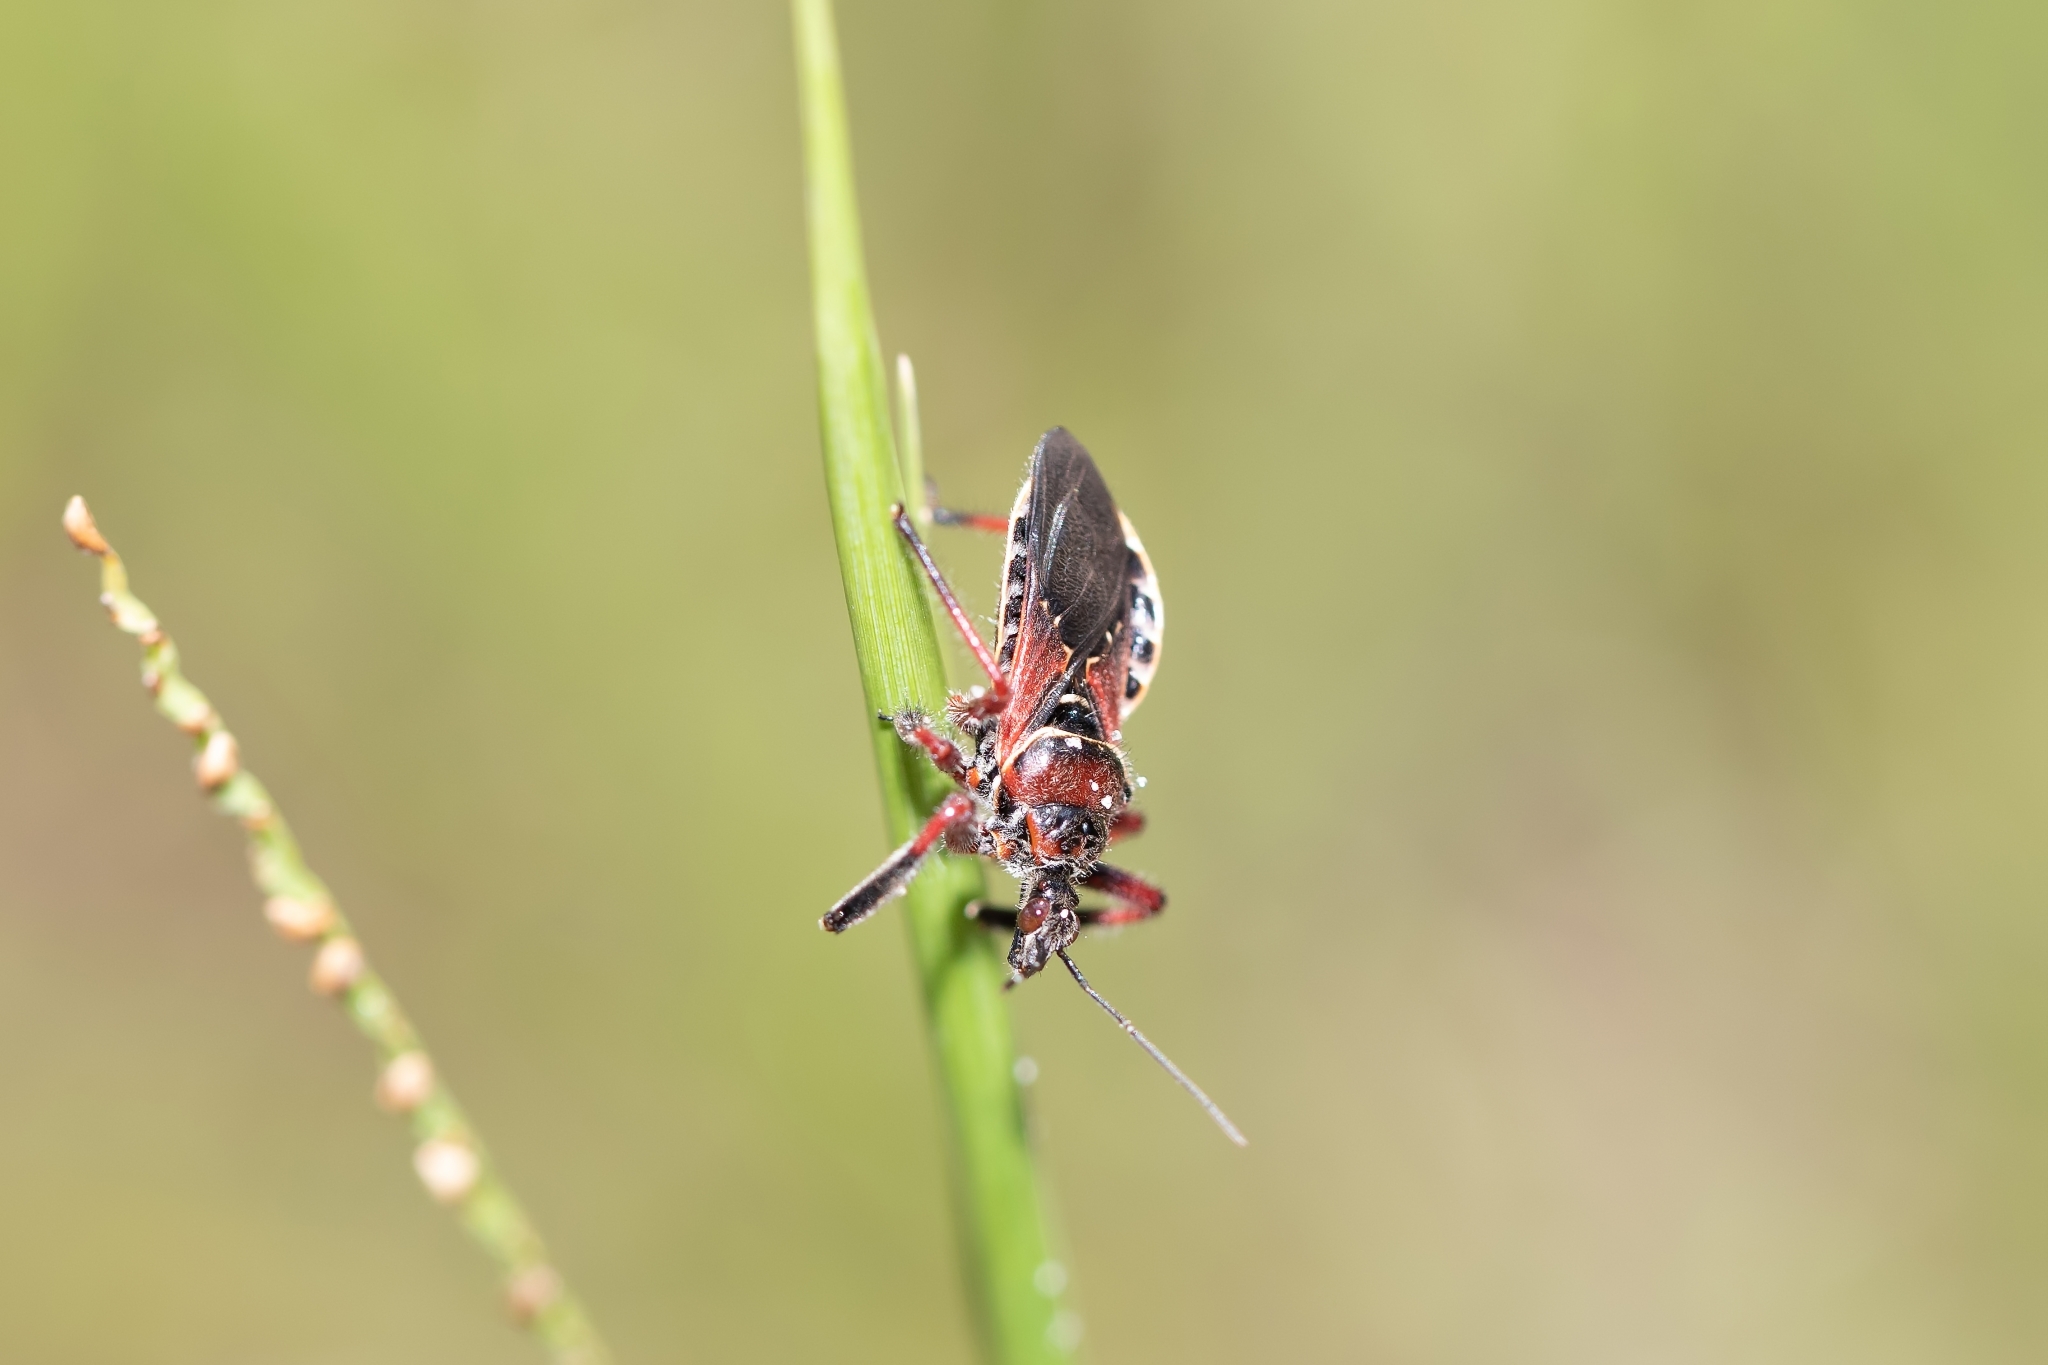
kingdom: Animalia
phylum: Arthropoda
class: Insecta
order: Hemiptera
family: Reduviidae
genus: Apiomerus
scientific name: Apiomerus floridensis
